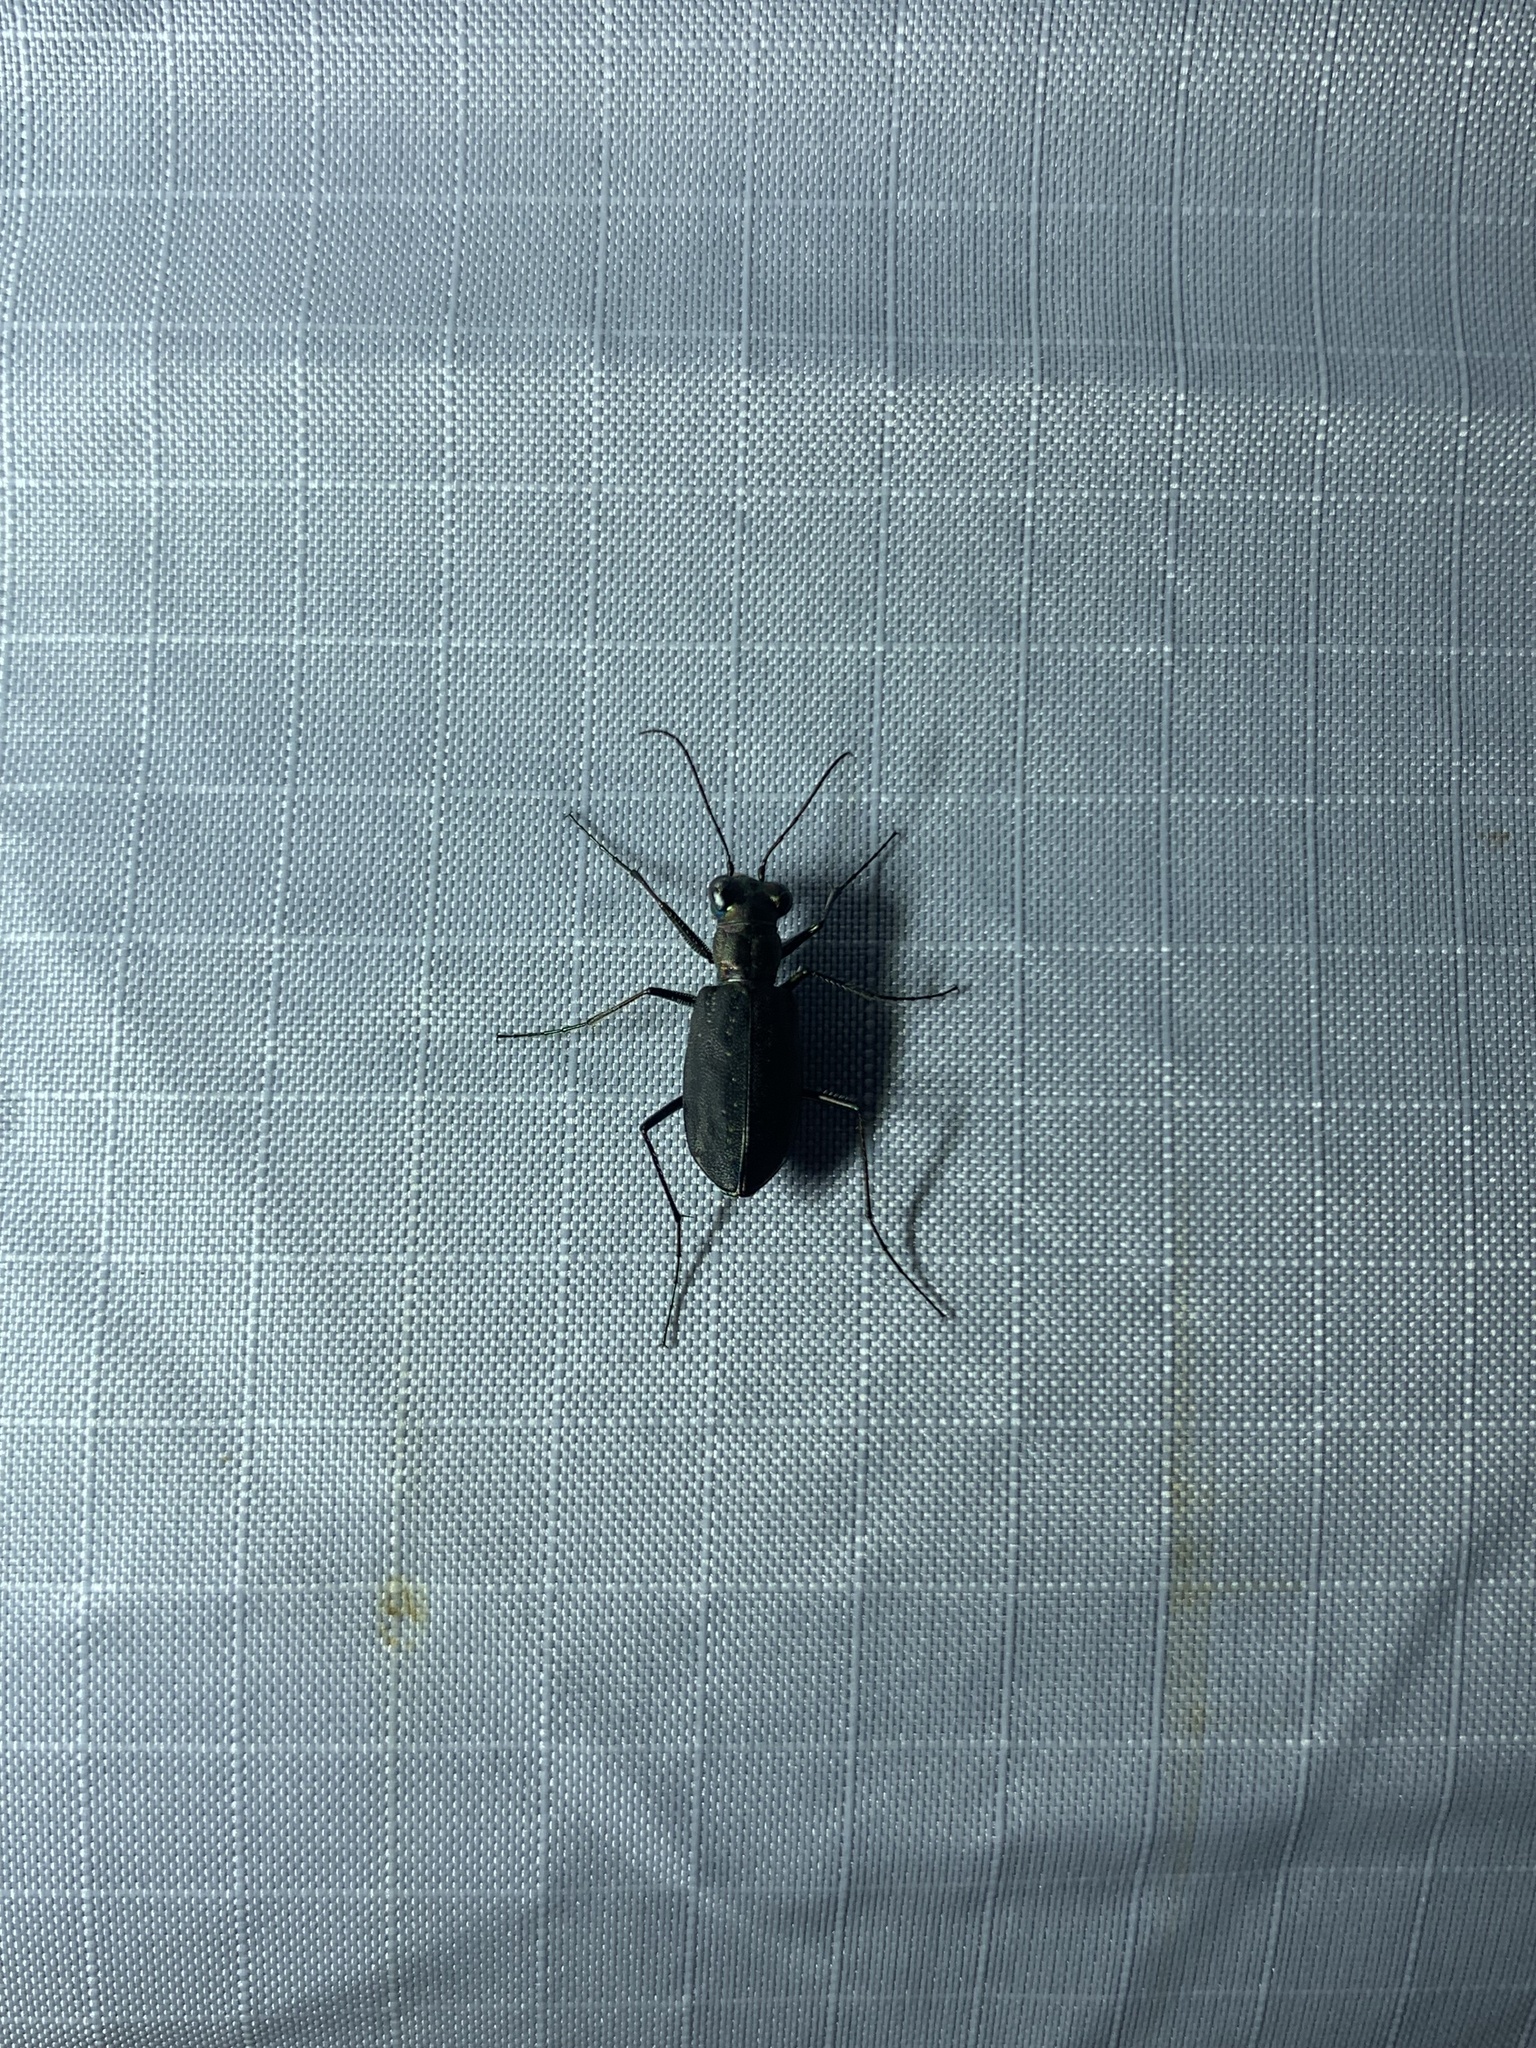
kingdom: Animalia
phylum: Arthropoda
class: Insecta
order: Coleoptera
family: Carabidae
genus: Cicindela
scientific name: Cicindela punctulata
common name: Punctured tiger beetle
